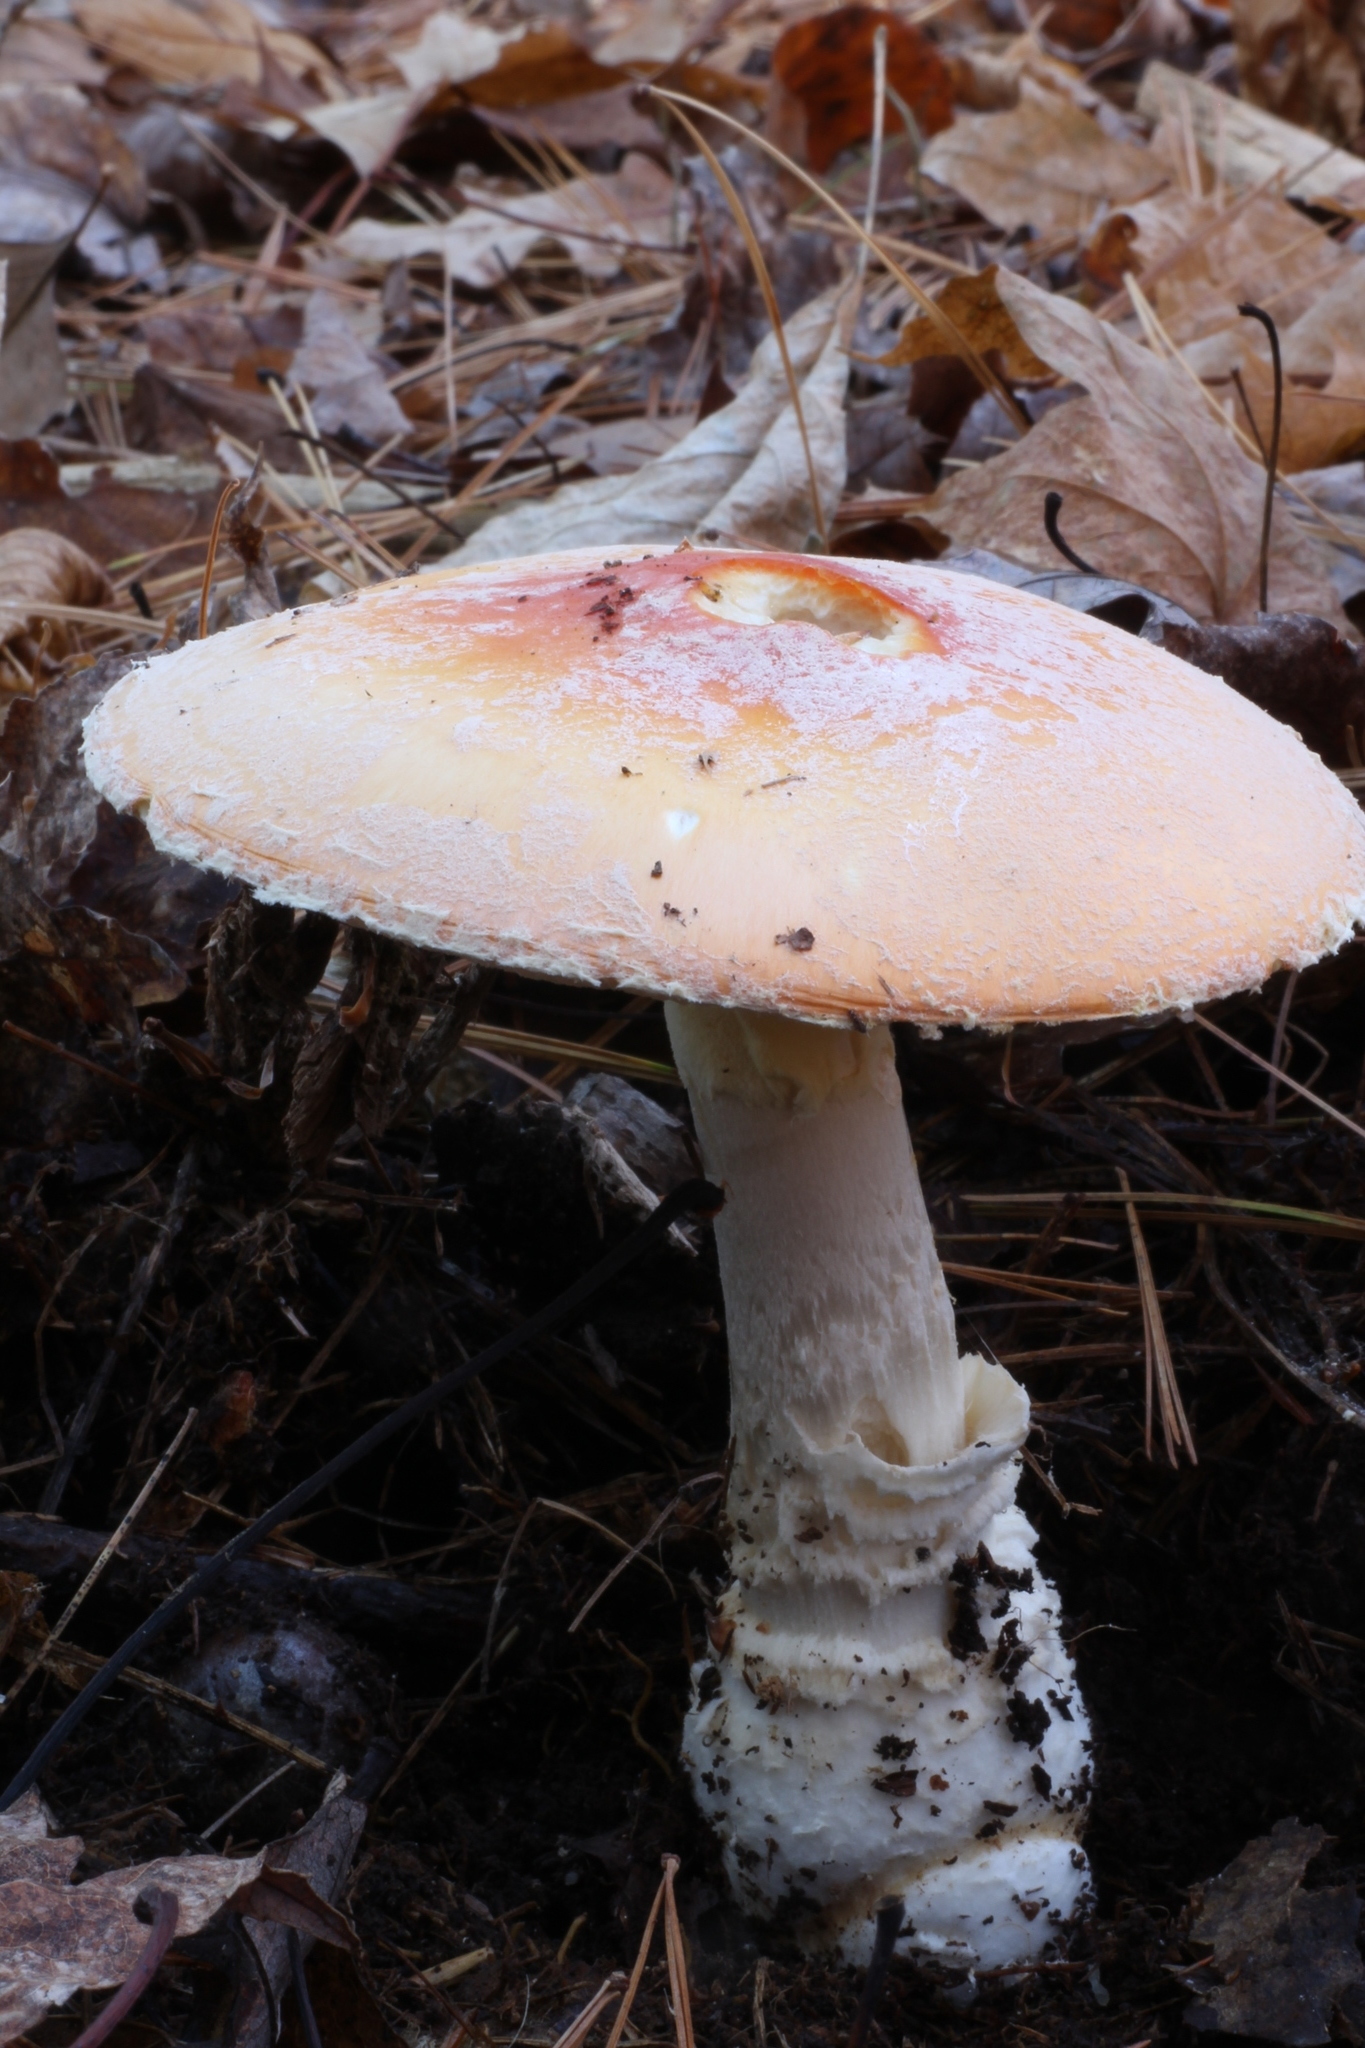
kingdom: Fungi
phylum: Basidiomycota
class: Agaricomycetes
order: Agaricales
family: Amanitaceae
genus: Amanita
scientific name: Amanita muscaria
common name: Fly agaric
